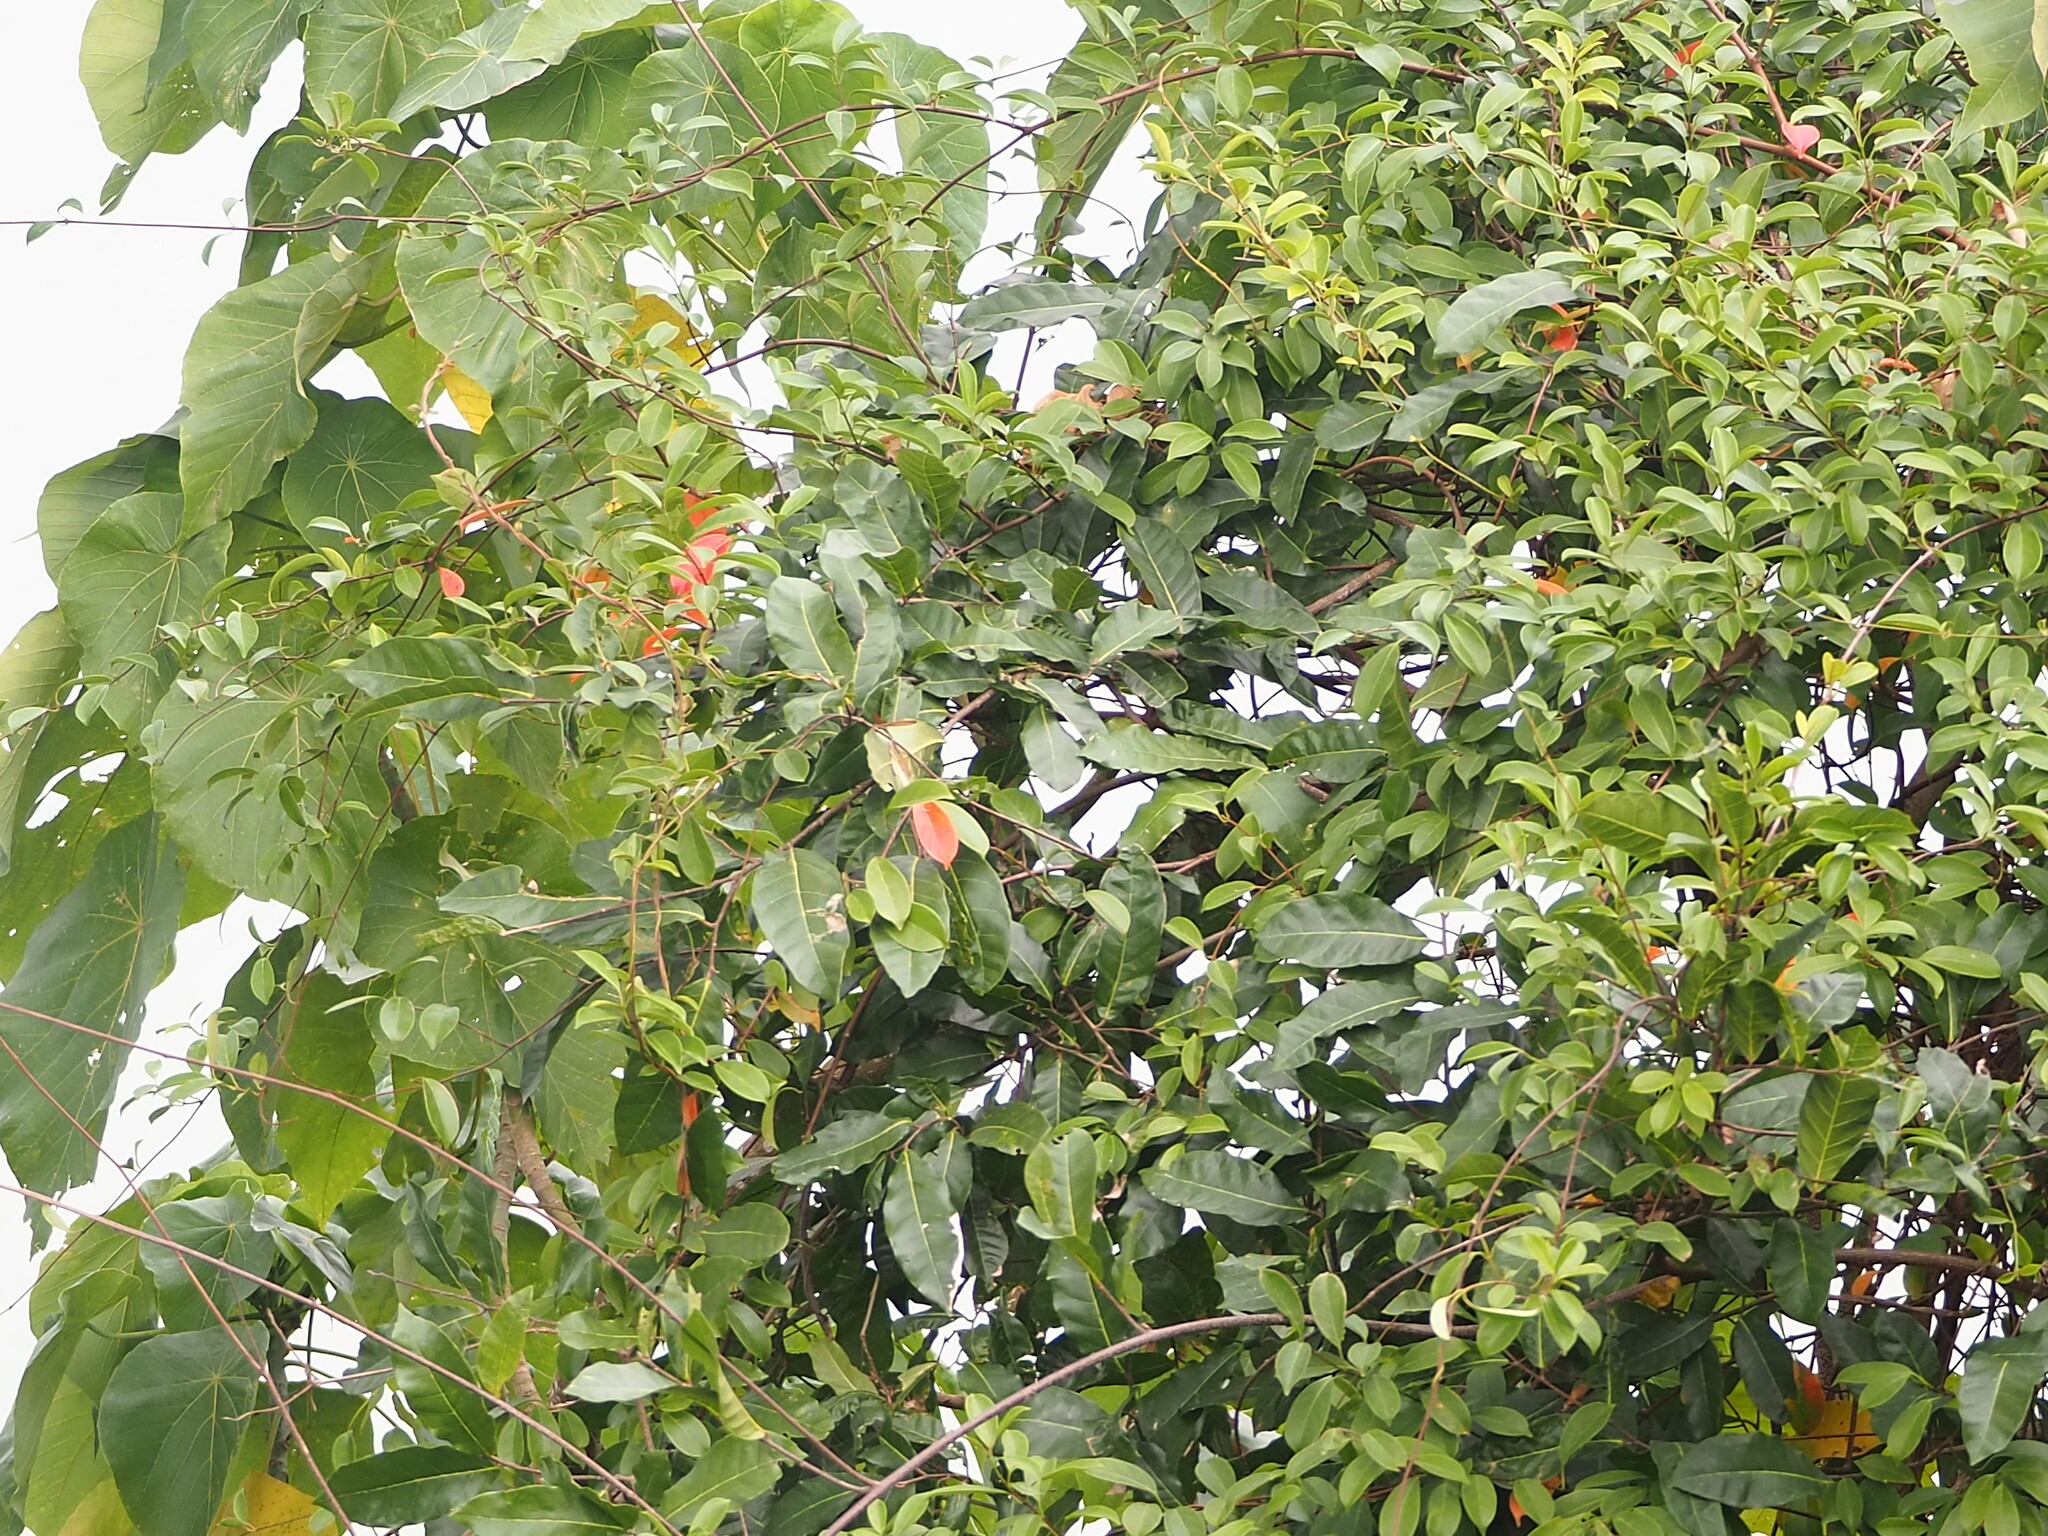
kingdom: Plantae
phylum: Tracheophyta
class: Magnoliopsida
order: Rosales
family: Moraceae
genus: Malaisia
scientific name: Malaisia scandens
